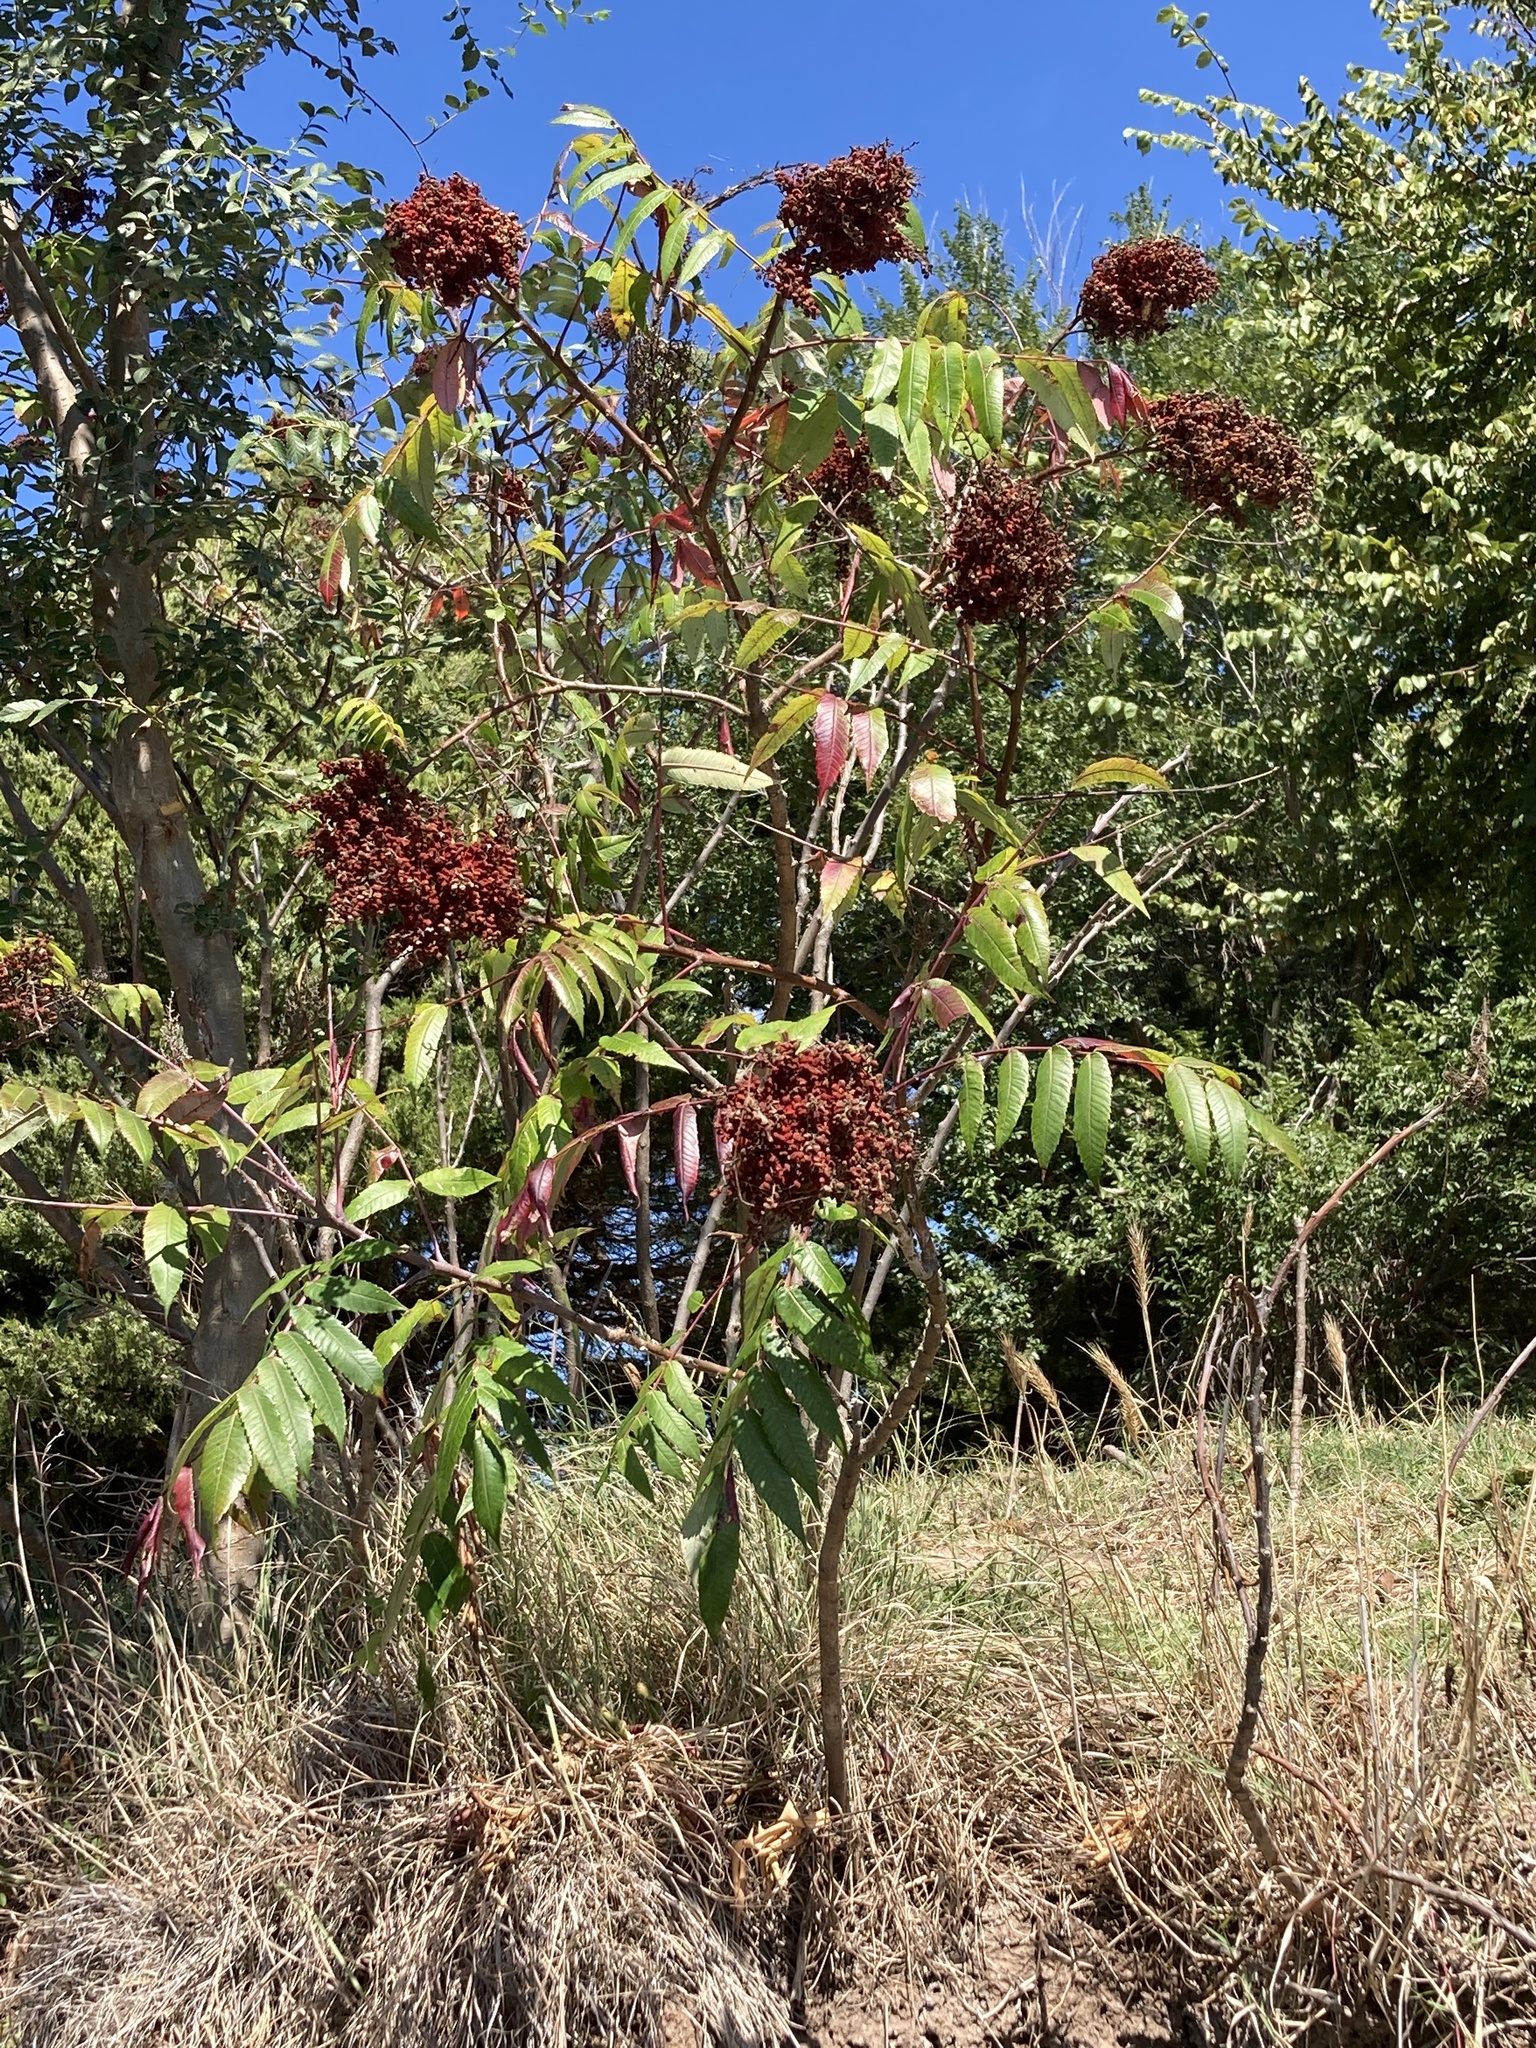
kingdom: Plantae
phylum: Tracheophyta
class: Magnoliopsida
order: Sapindales
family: Anacardiaceae
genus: Rhus
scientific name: Rhus glabra
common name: Scarlet sumac
